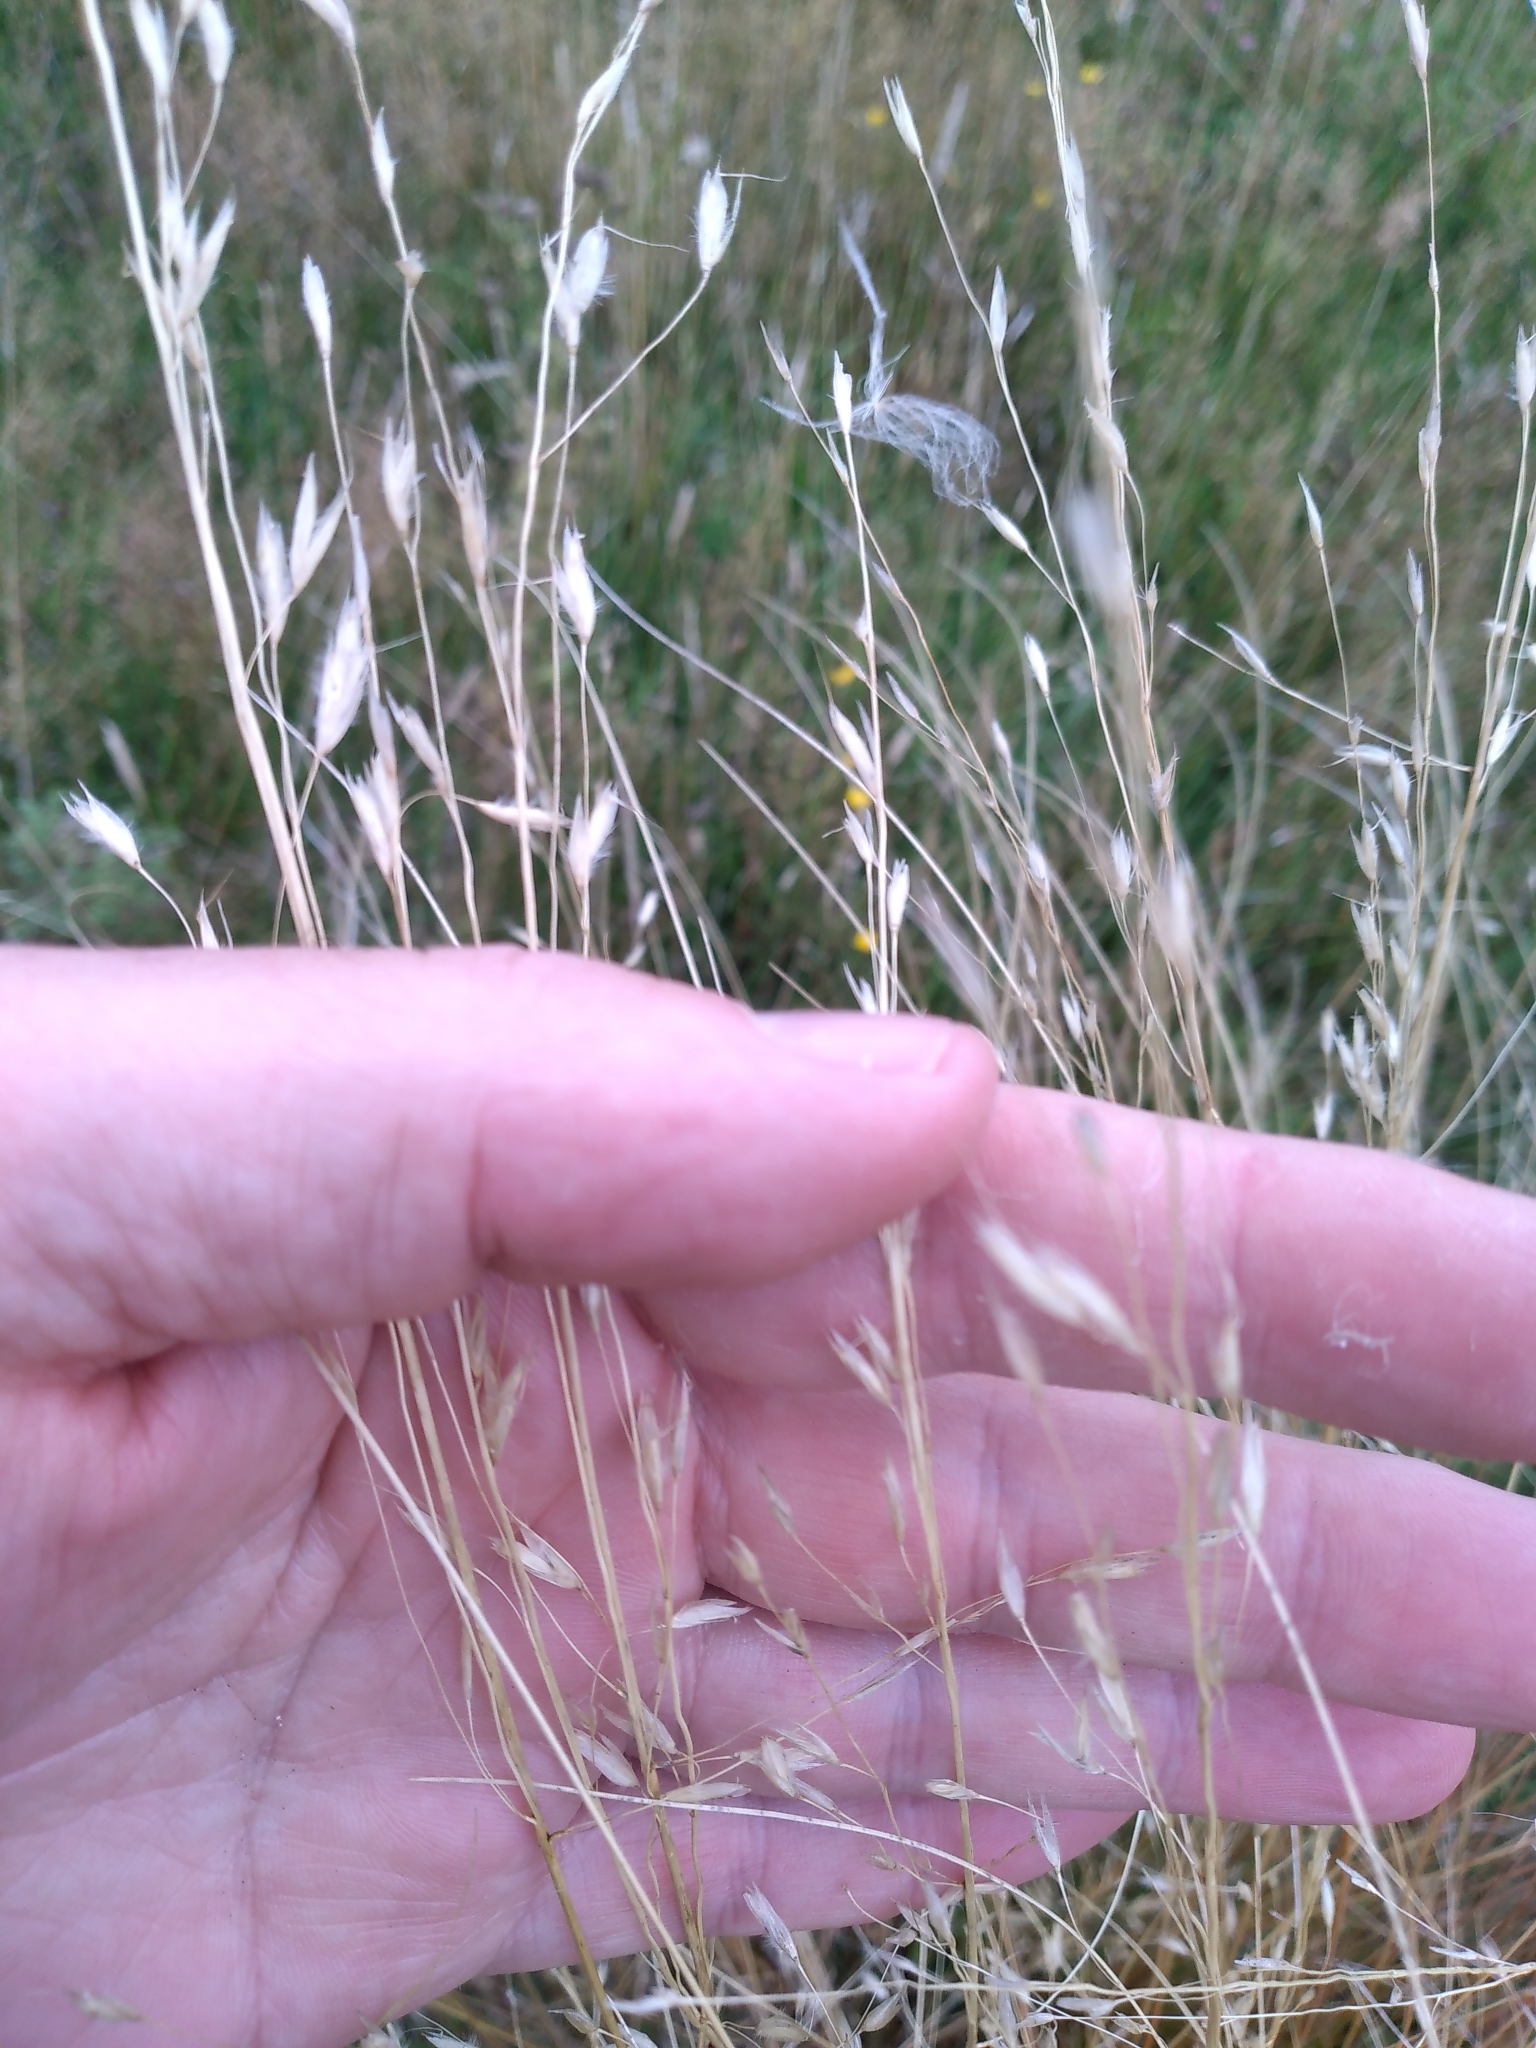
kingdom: Plantae
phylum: Tracheophyta
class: Liliopsida
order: Poales
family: Poaceae
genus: Chionochloa
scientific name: Chionochloa rubra
